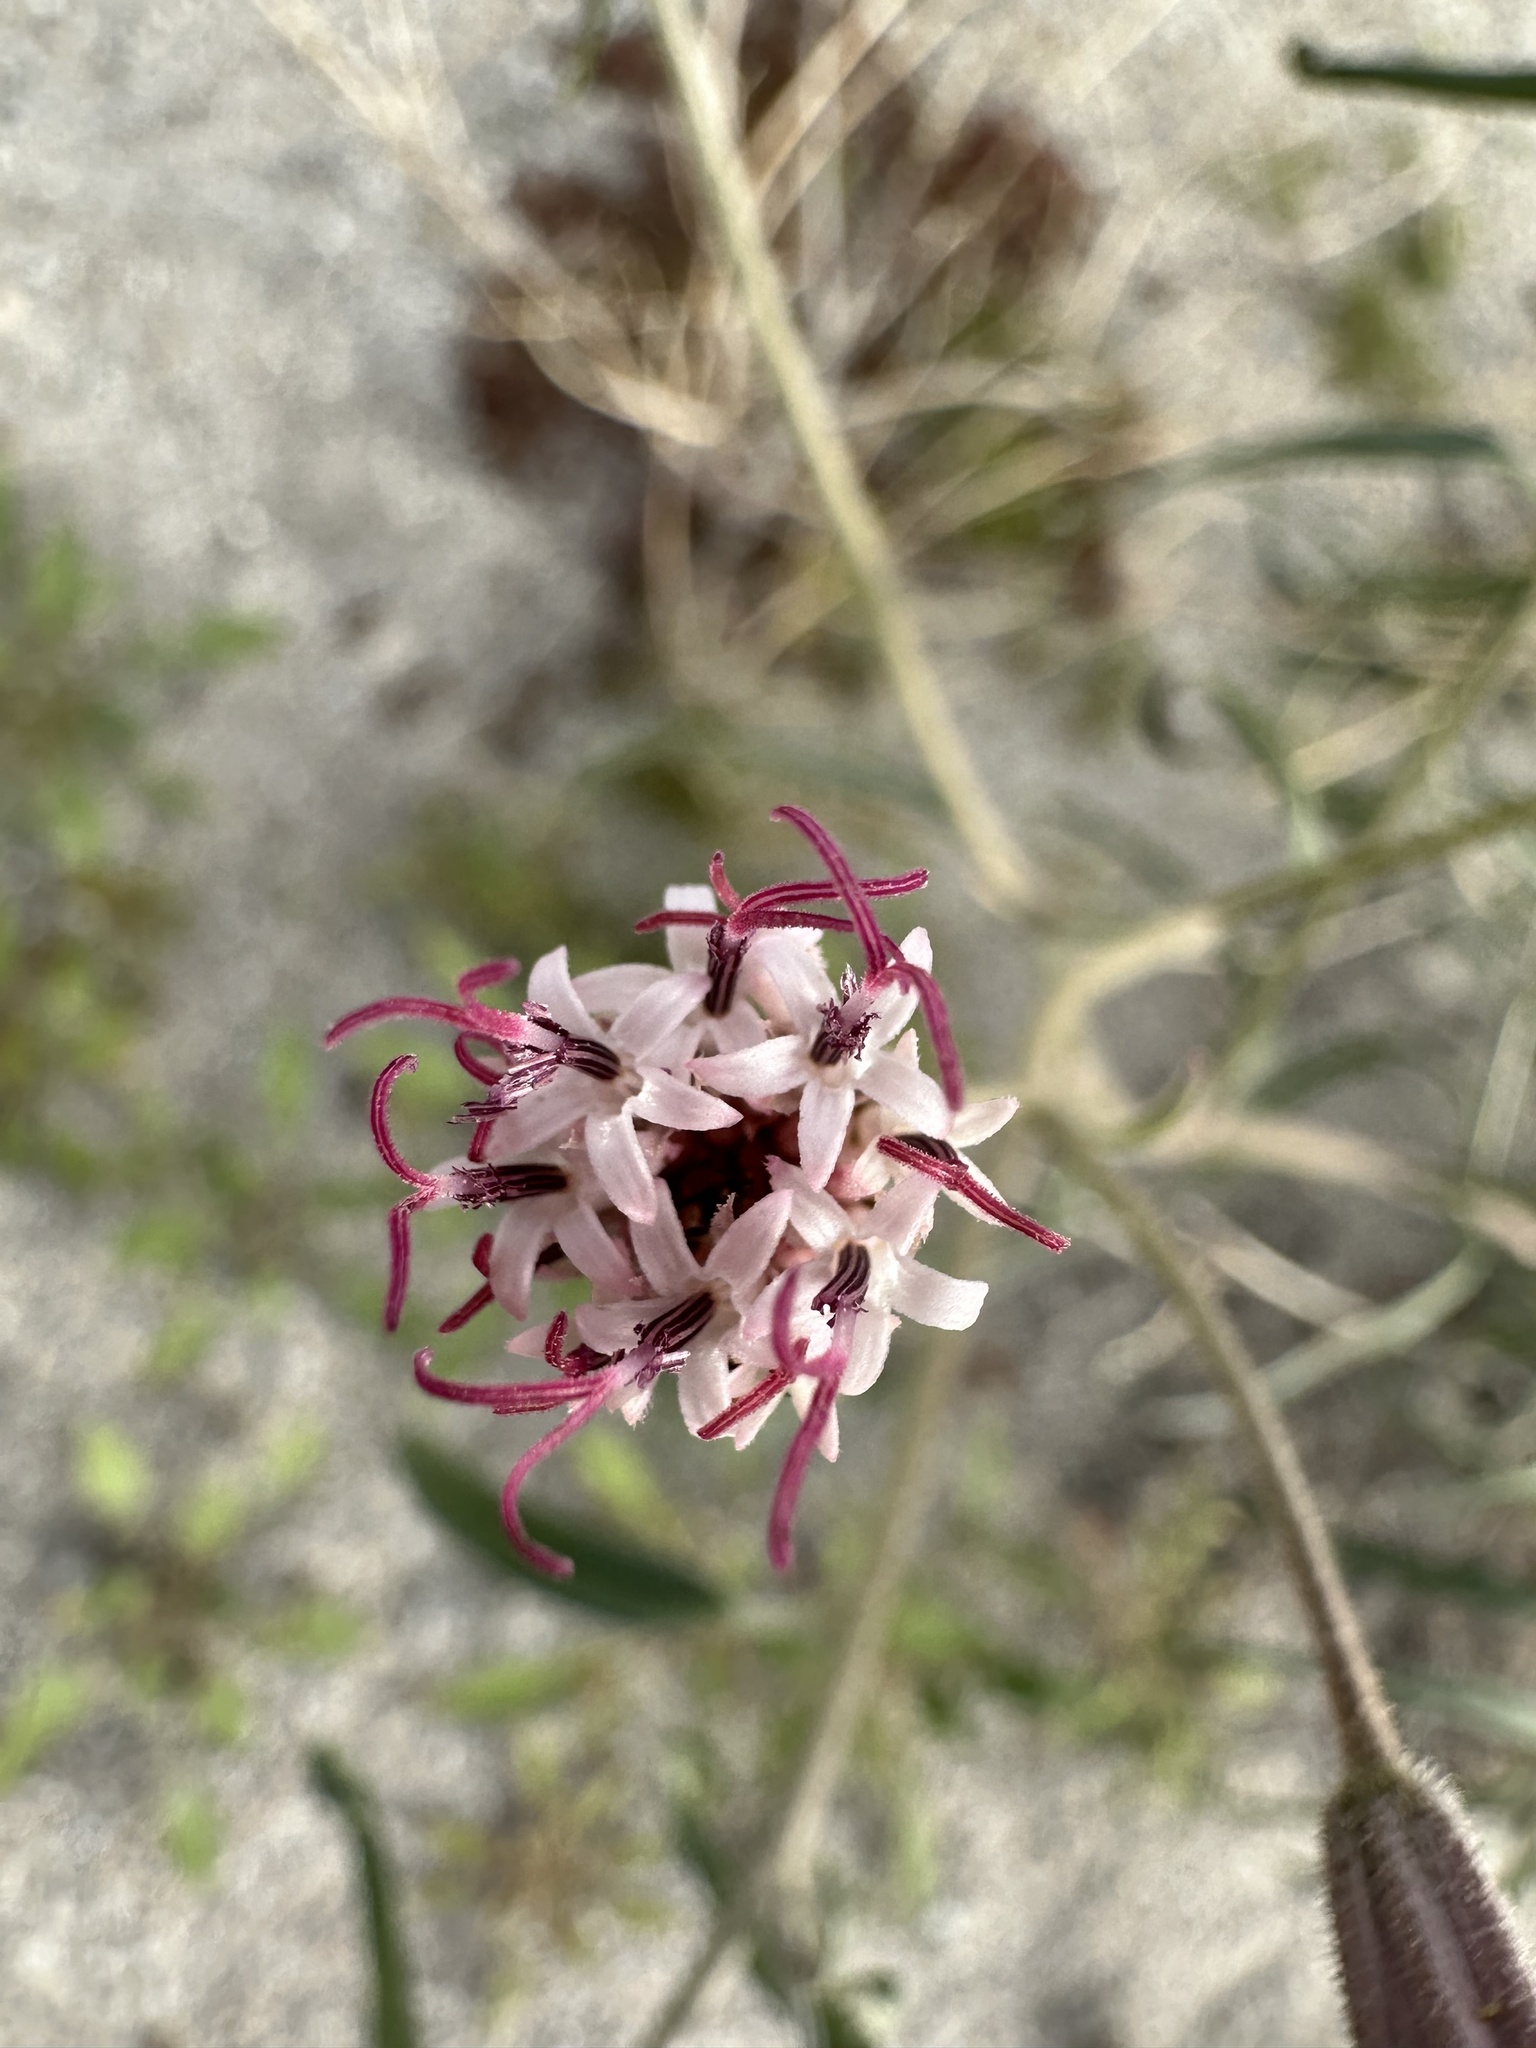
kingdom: Plantae
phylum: Tracheophyta
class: Magnoliopsida
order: Asterales
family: Asteraceae
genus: Palafoxia
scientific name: Palafoxia arida
